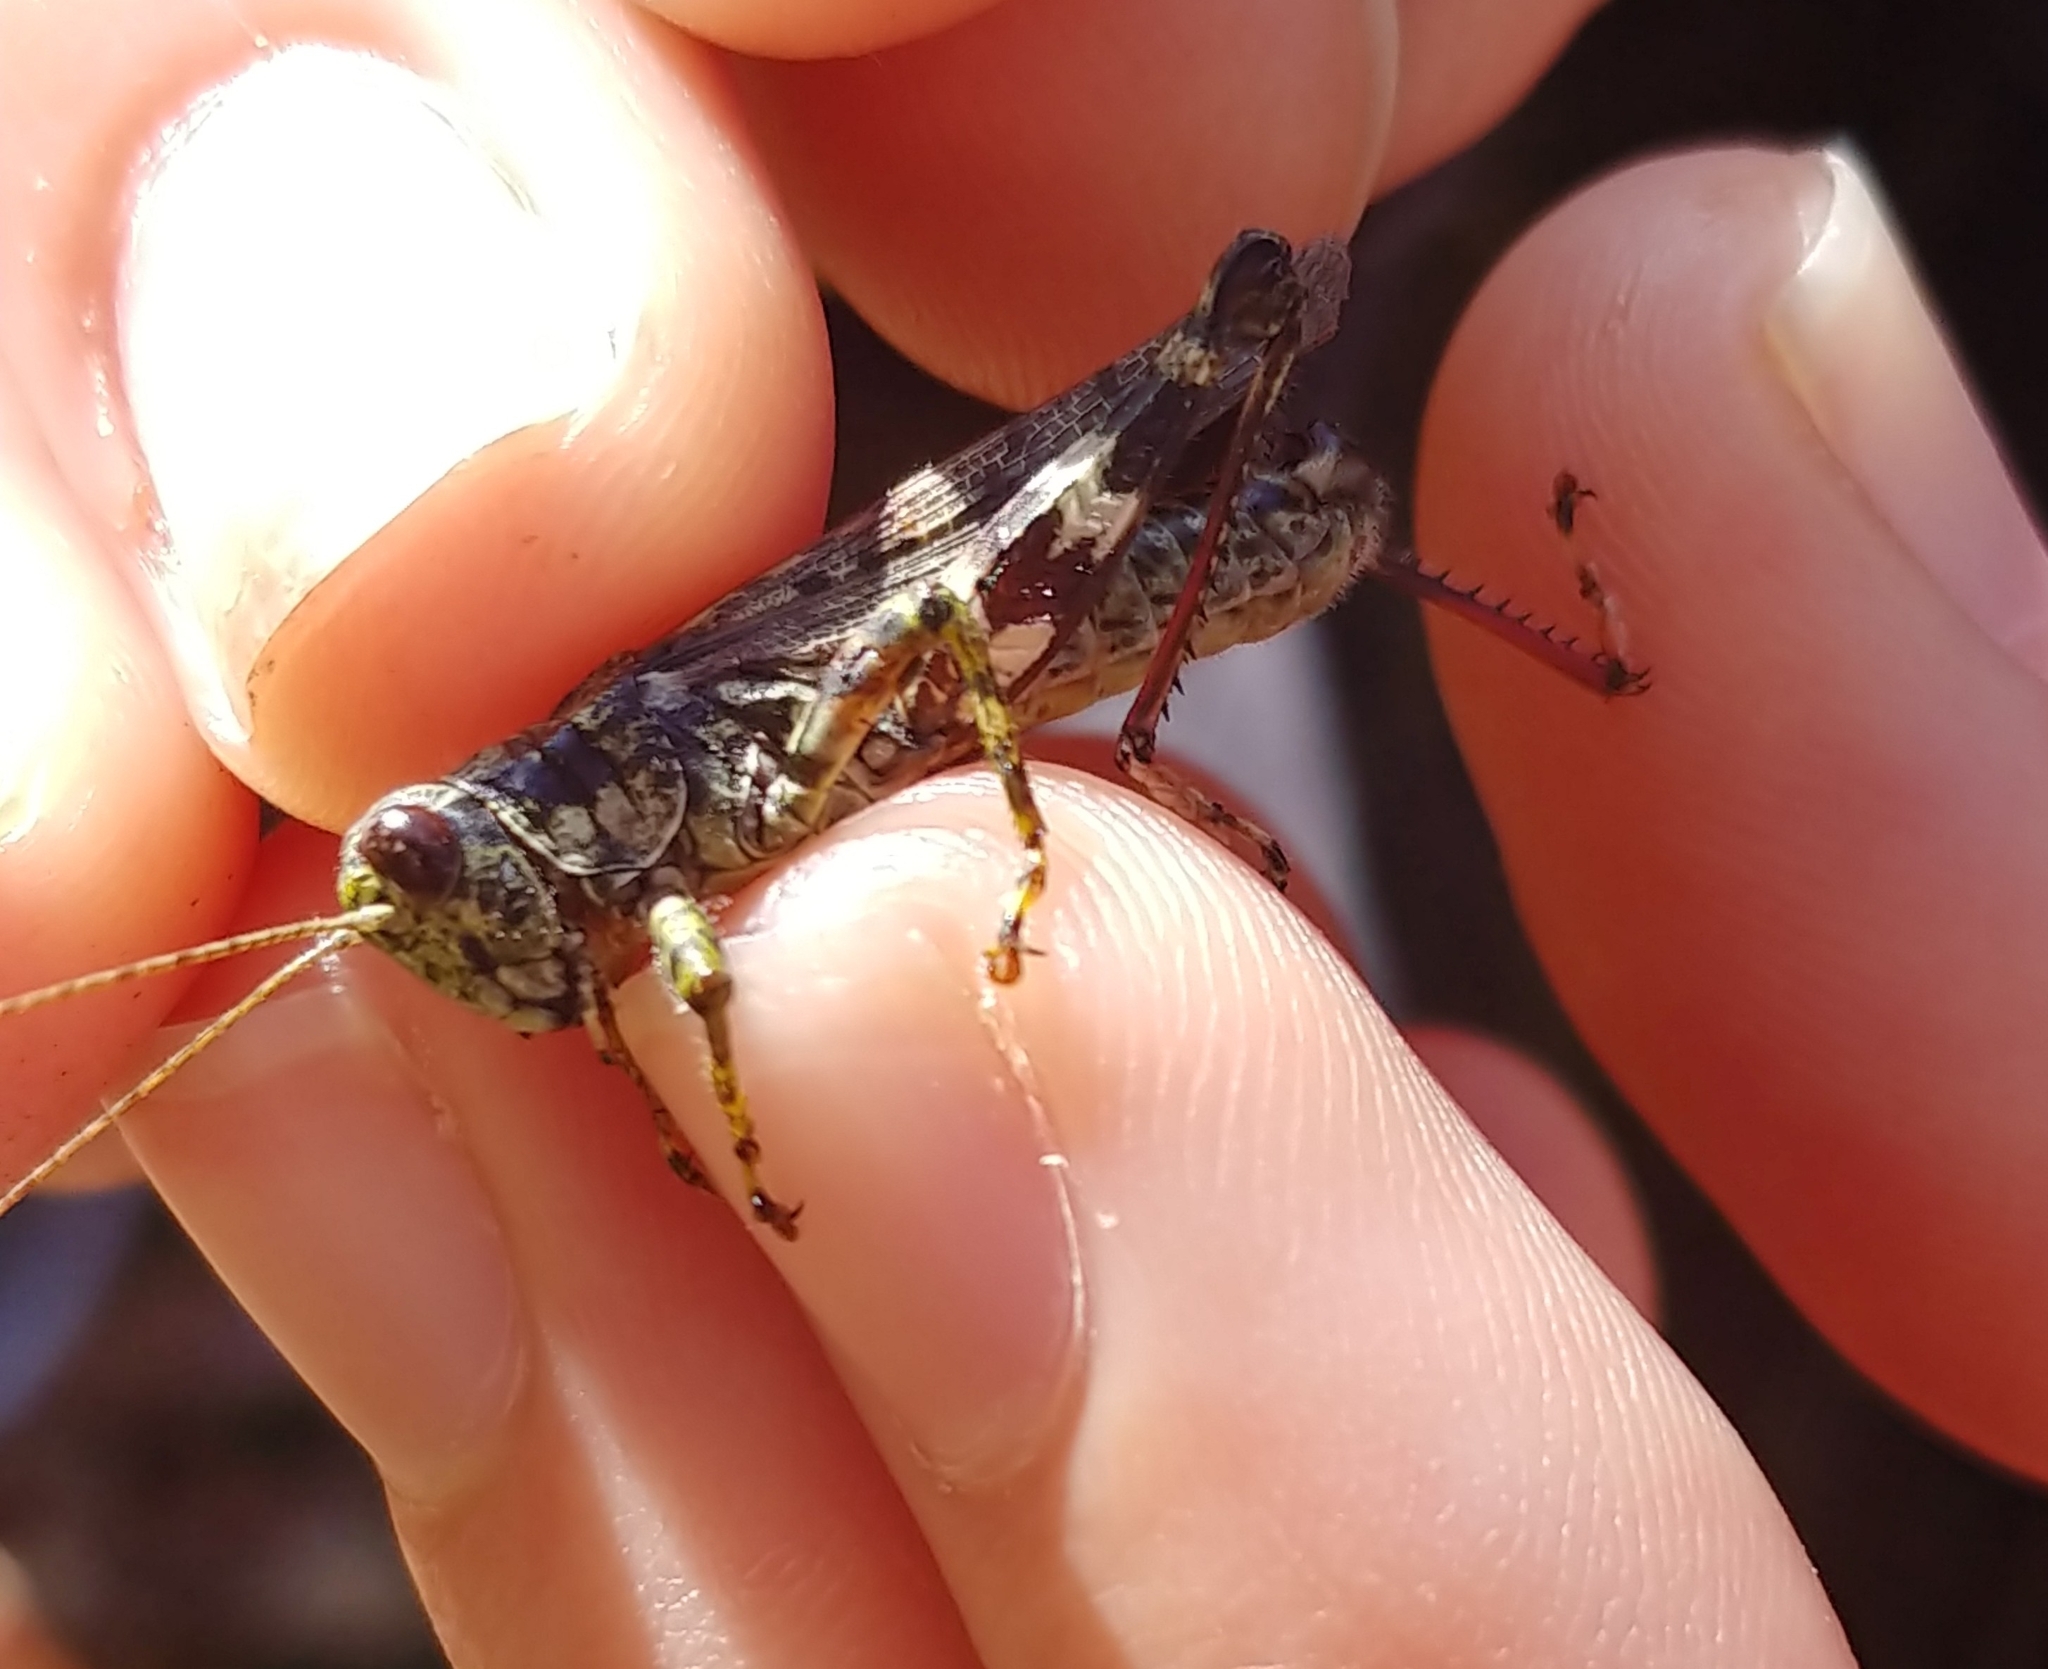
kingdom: Animalia
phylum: Arthropoda
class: Insecta
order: Orthoptera
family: Acrididae
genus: Melanoplus
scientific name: Melanoplus punctulatus
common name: Pine-tree spur-throat grasshopper
